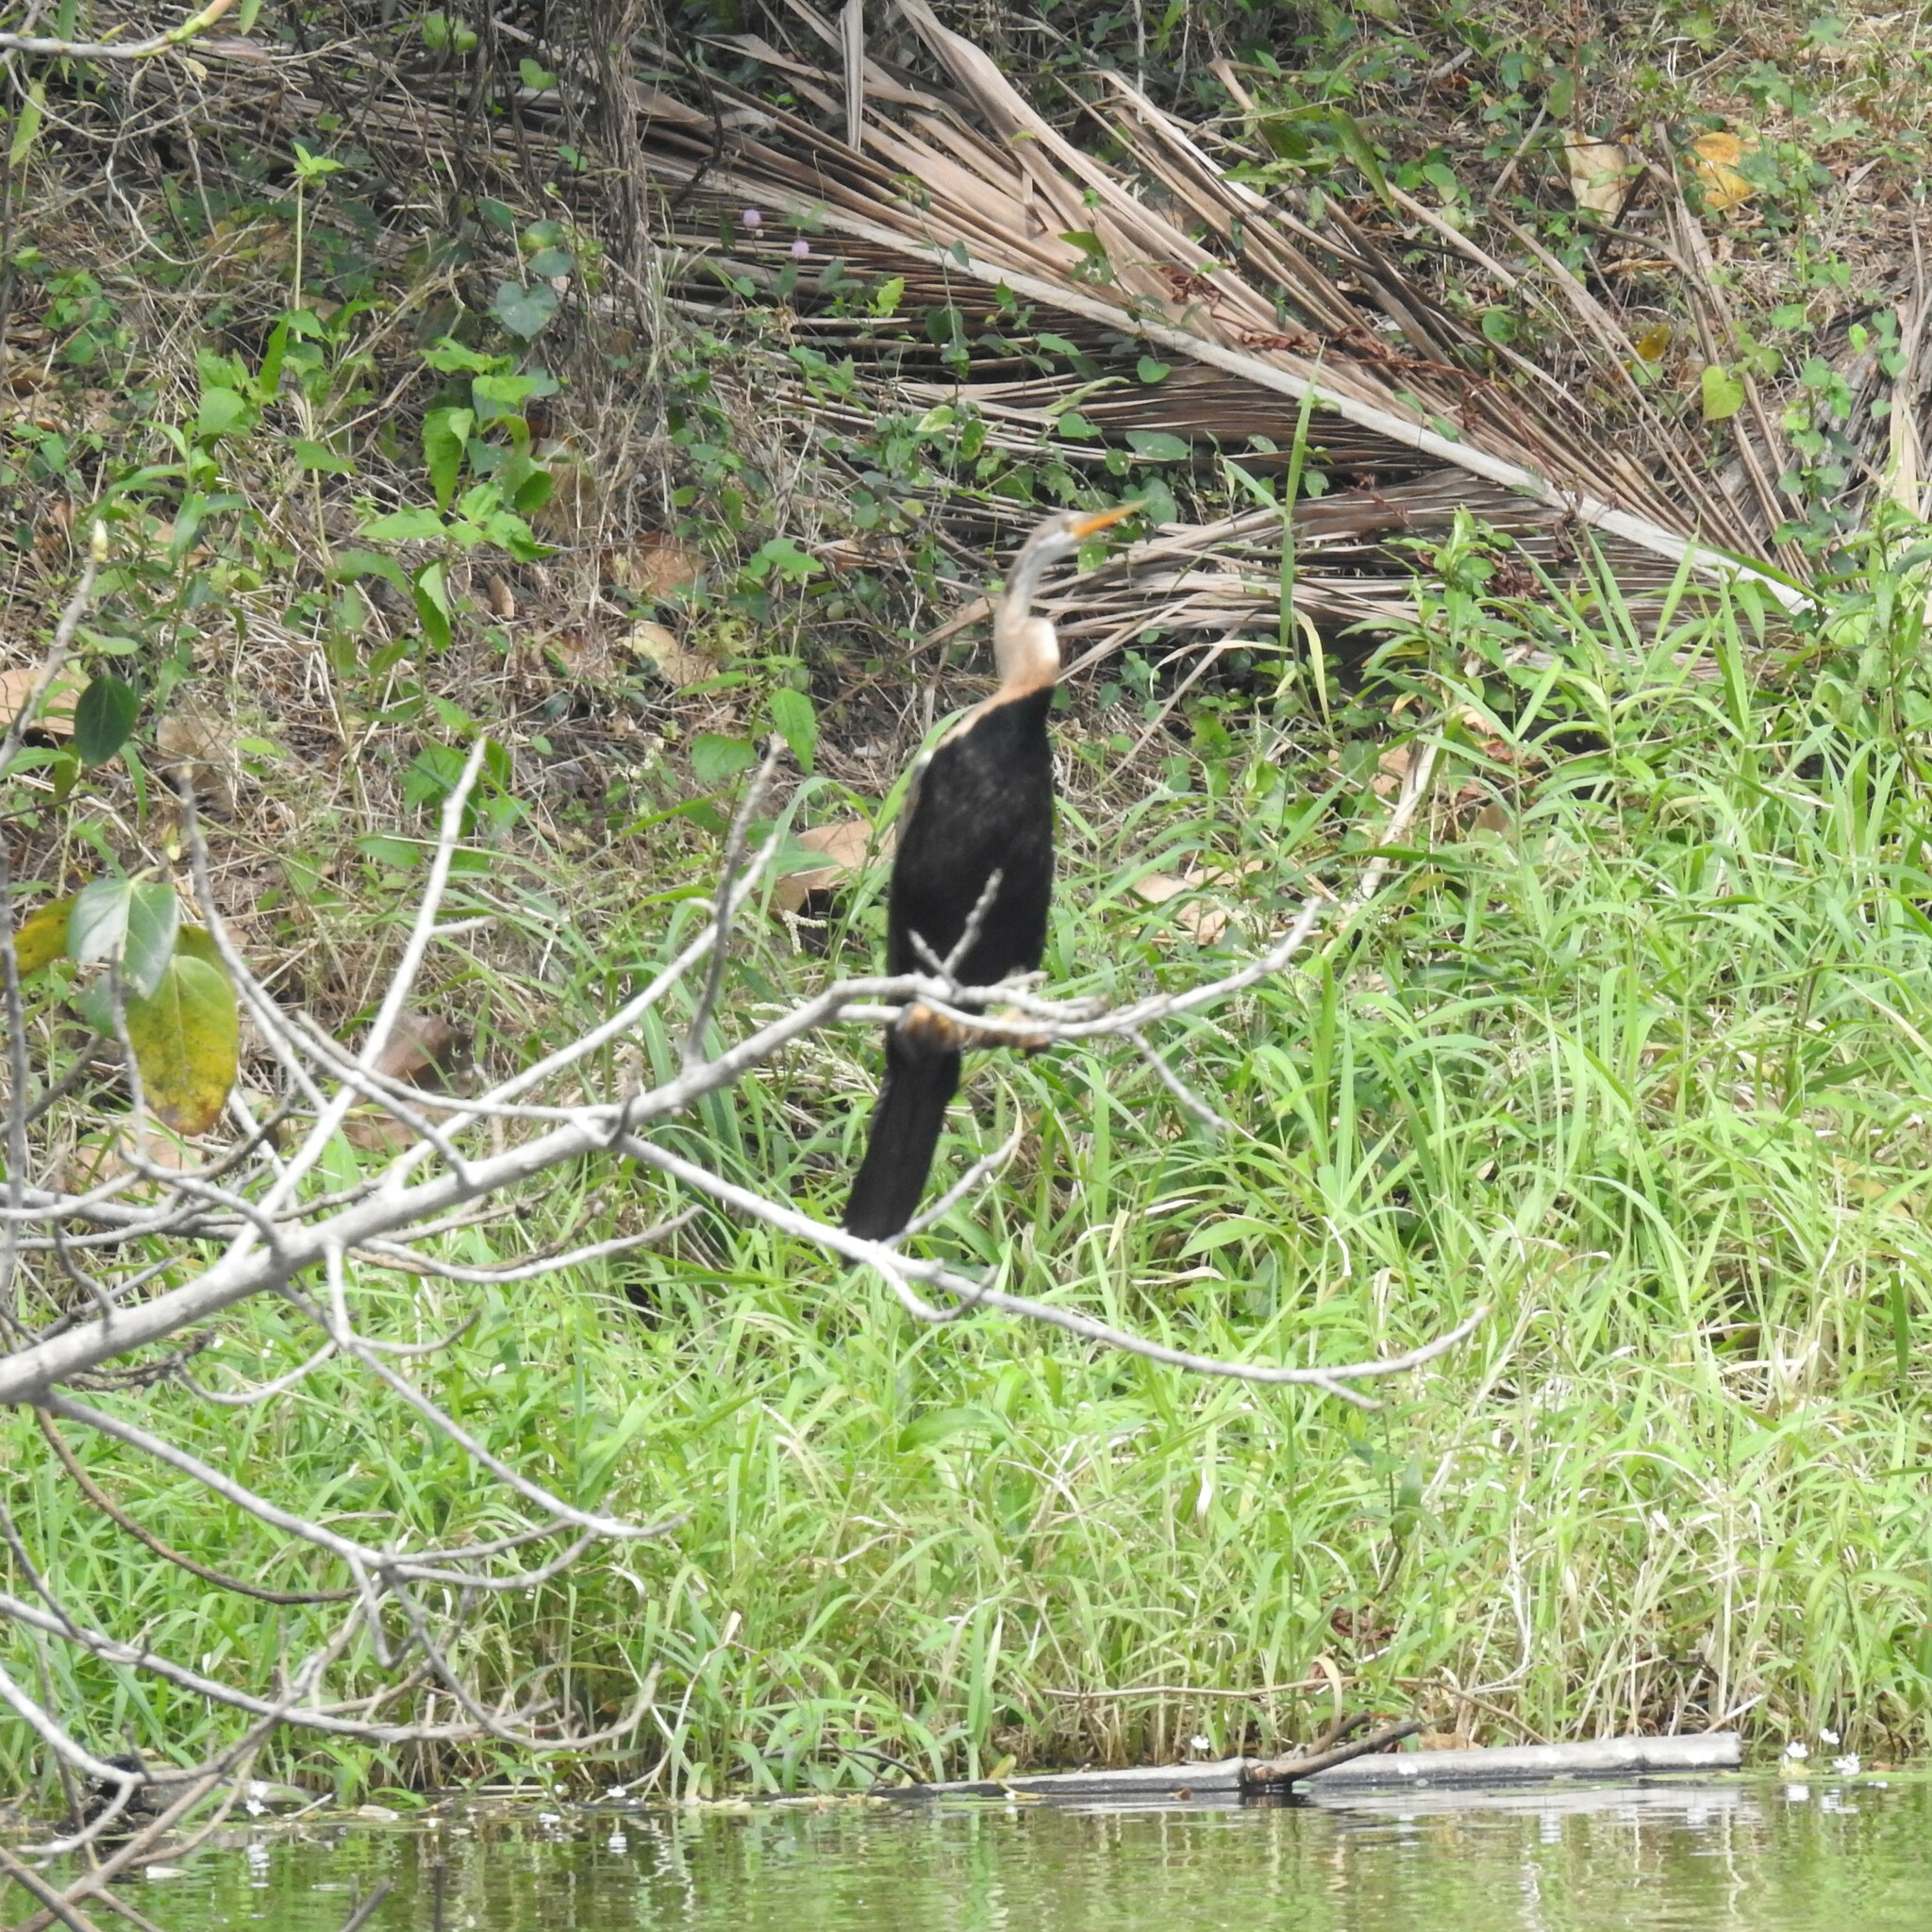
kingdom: Animalia
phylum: Chordata
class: Aves
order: Suliformes
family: Anhingidae
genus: Anhinga
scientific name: Anhinga melanogaster
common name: Oriental darter
